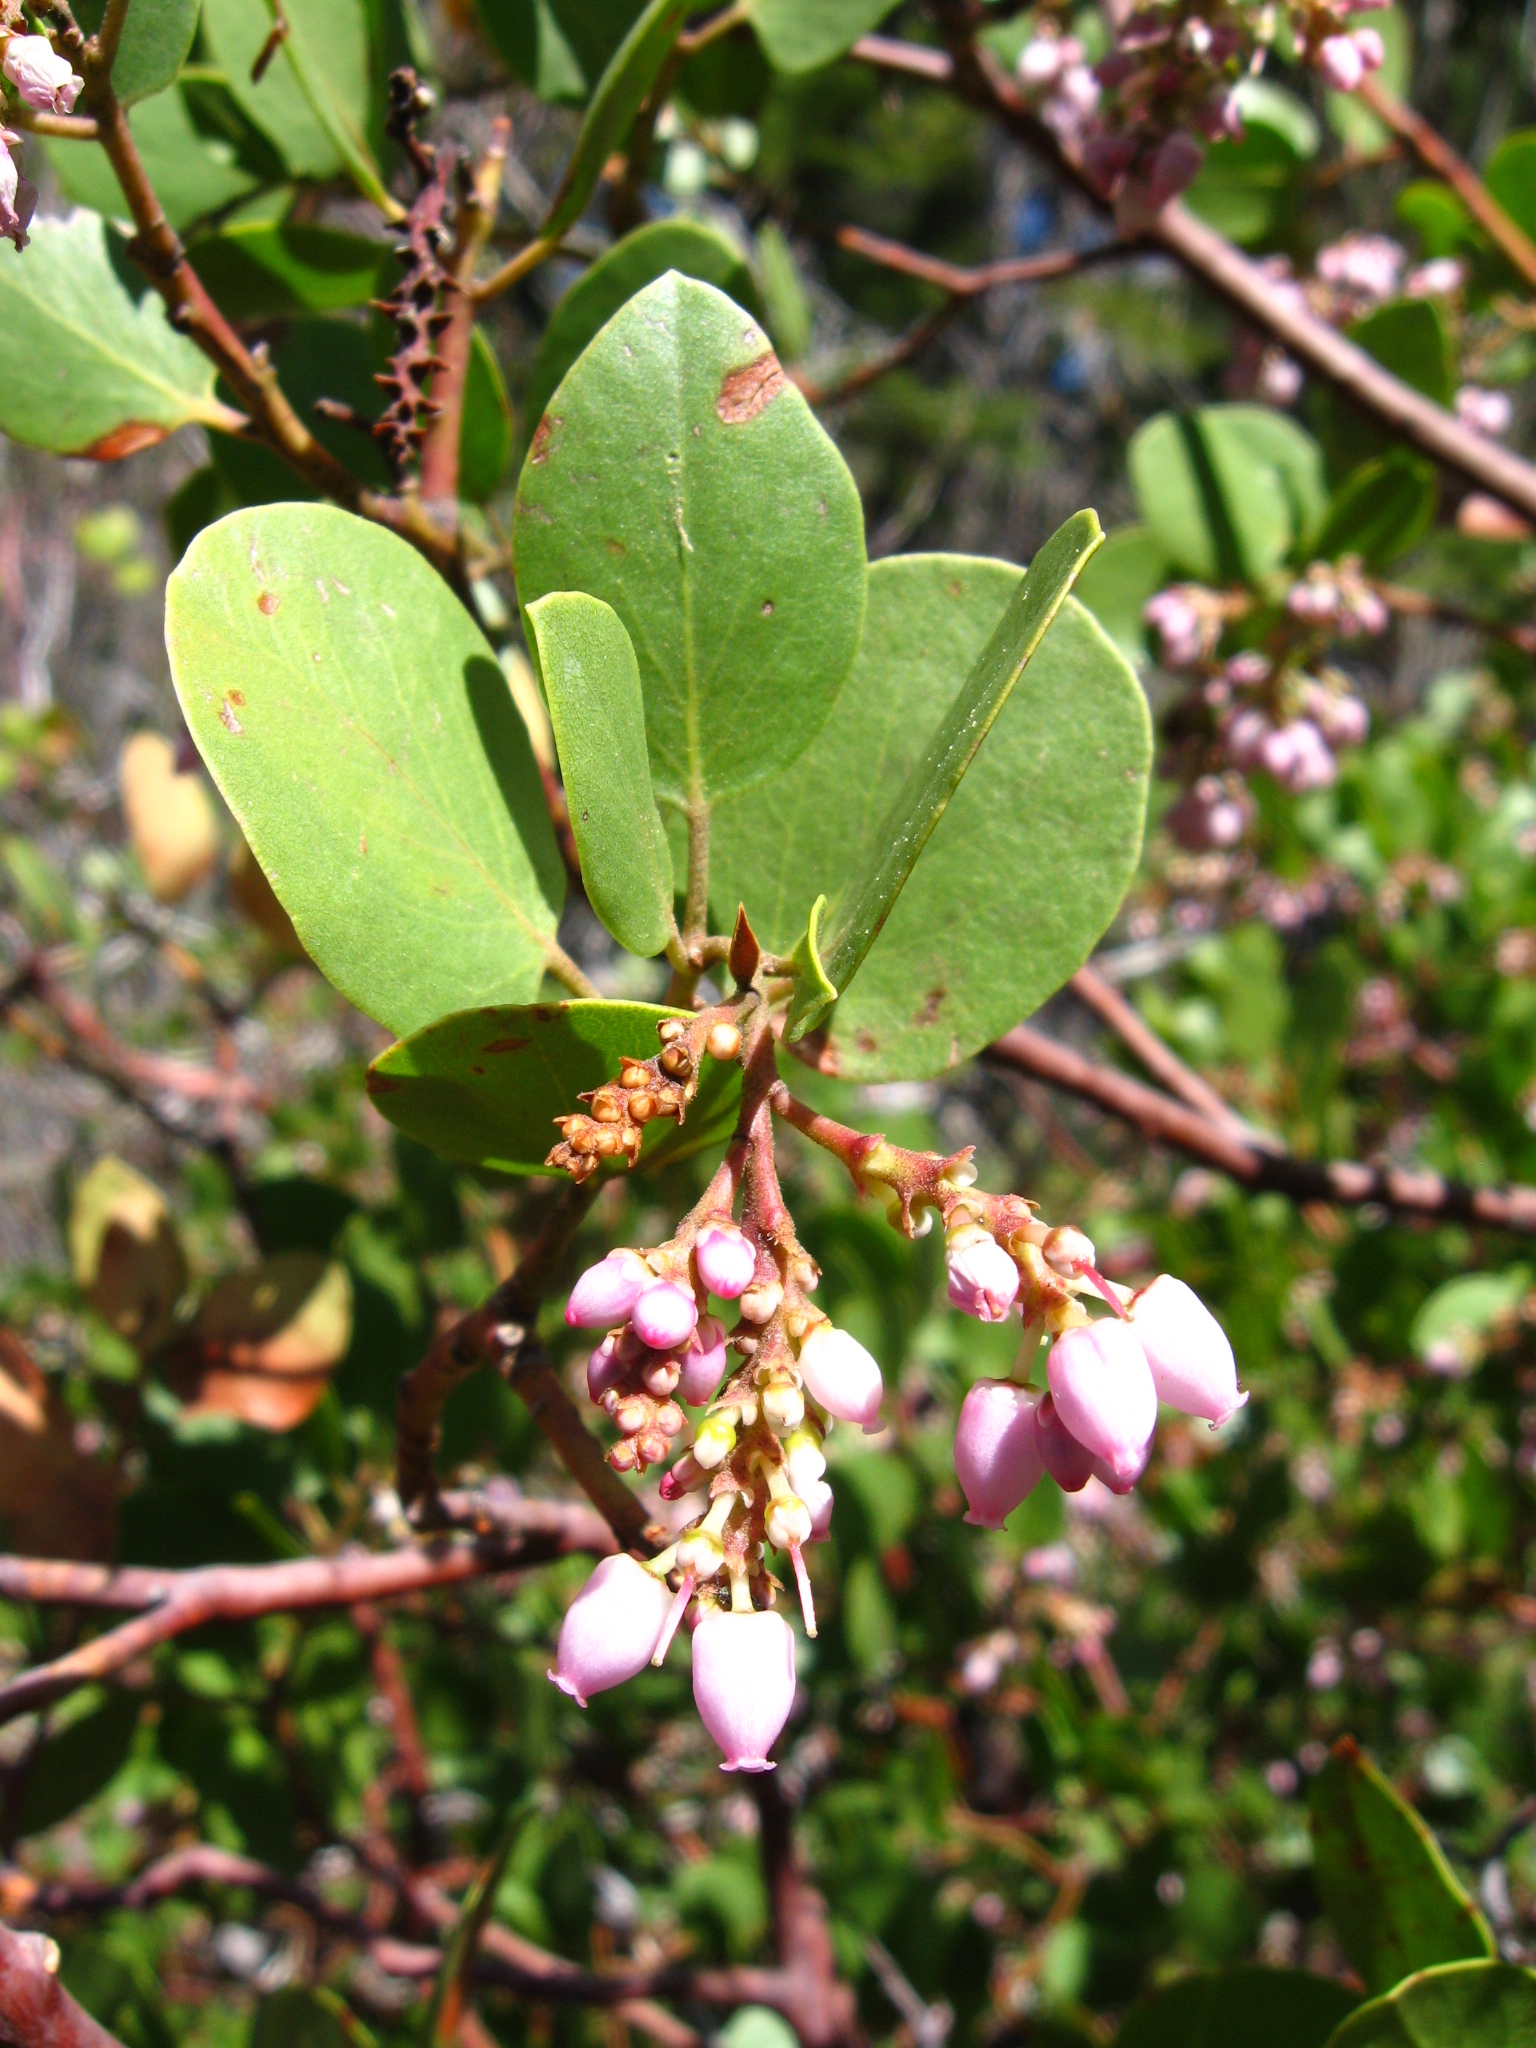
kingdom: Plantae
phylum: Tracheophyta
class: Magnoliopsida
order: Ericales
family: Ericaceae
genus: Arctostaphylos
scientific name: Arctostaphylos patula
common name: Green-leaf manzanita
